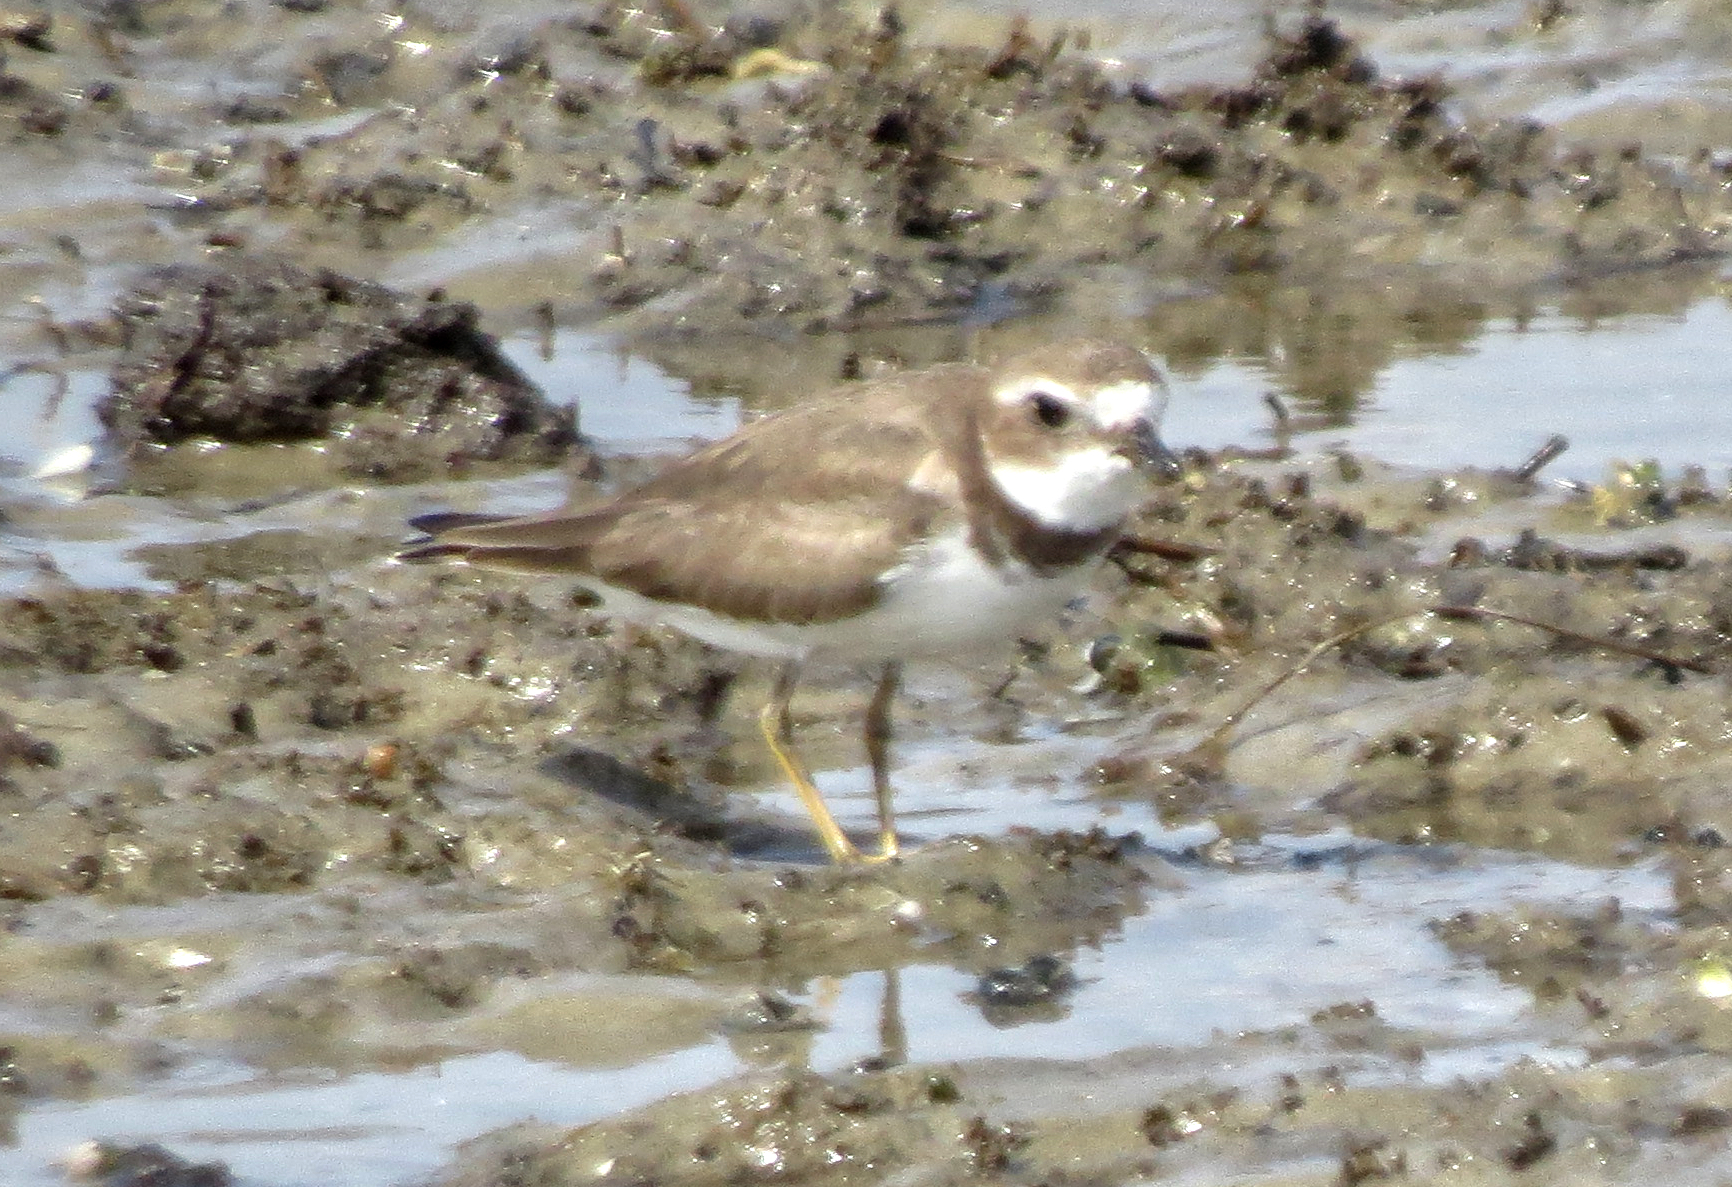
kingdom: Animalia
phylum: Chordata
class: Aves
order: Charadriiformes
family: Charadriidae
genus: Charadrius
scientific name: Charadrius semipalmatus
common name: Semipalmated plover
